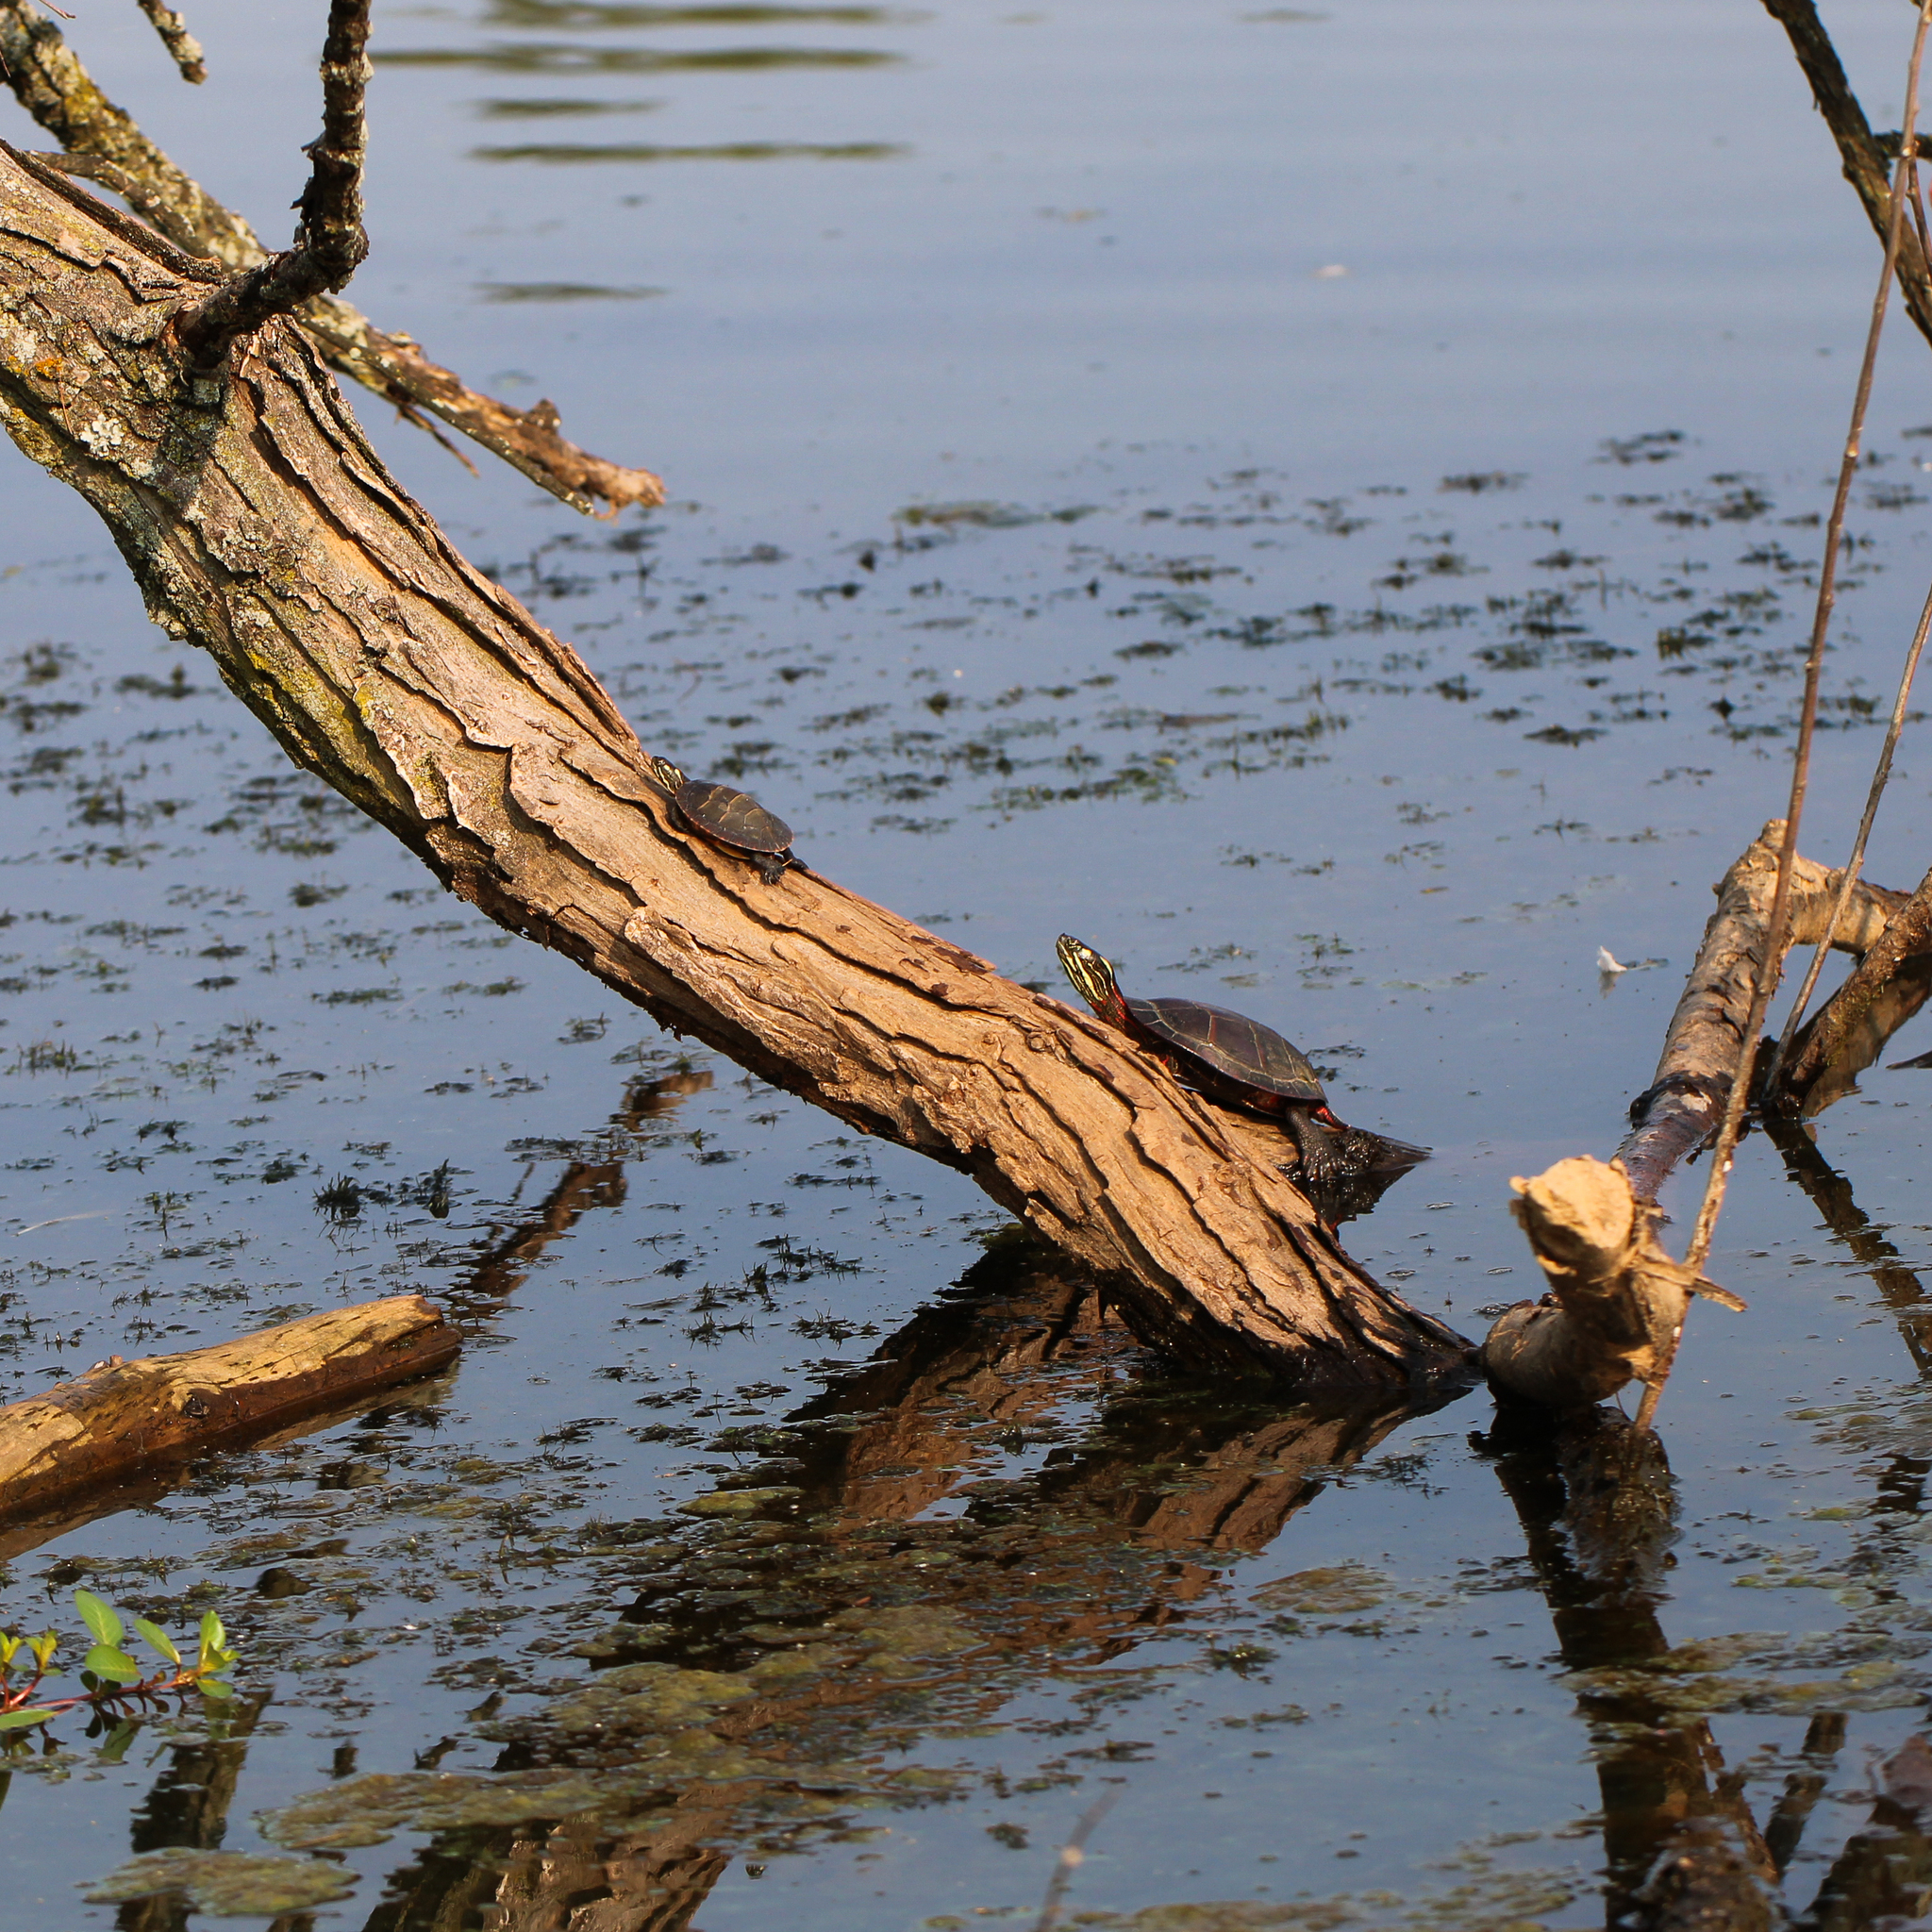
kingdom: Animalia
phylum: Chordata
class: Testudines
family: Emydidae
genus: Chrysemys
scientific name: Chrysemys picta
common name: Painted turtle
